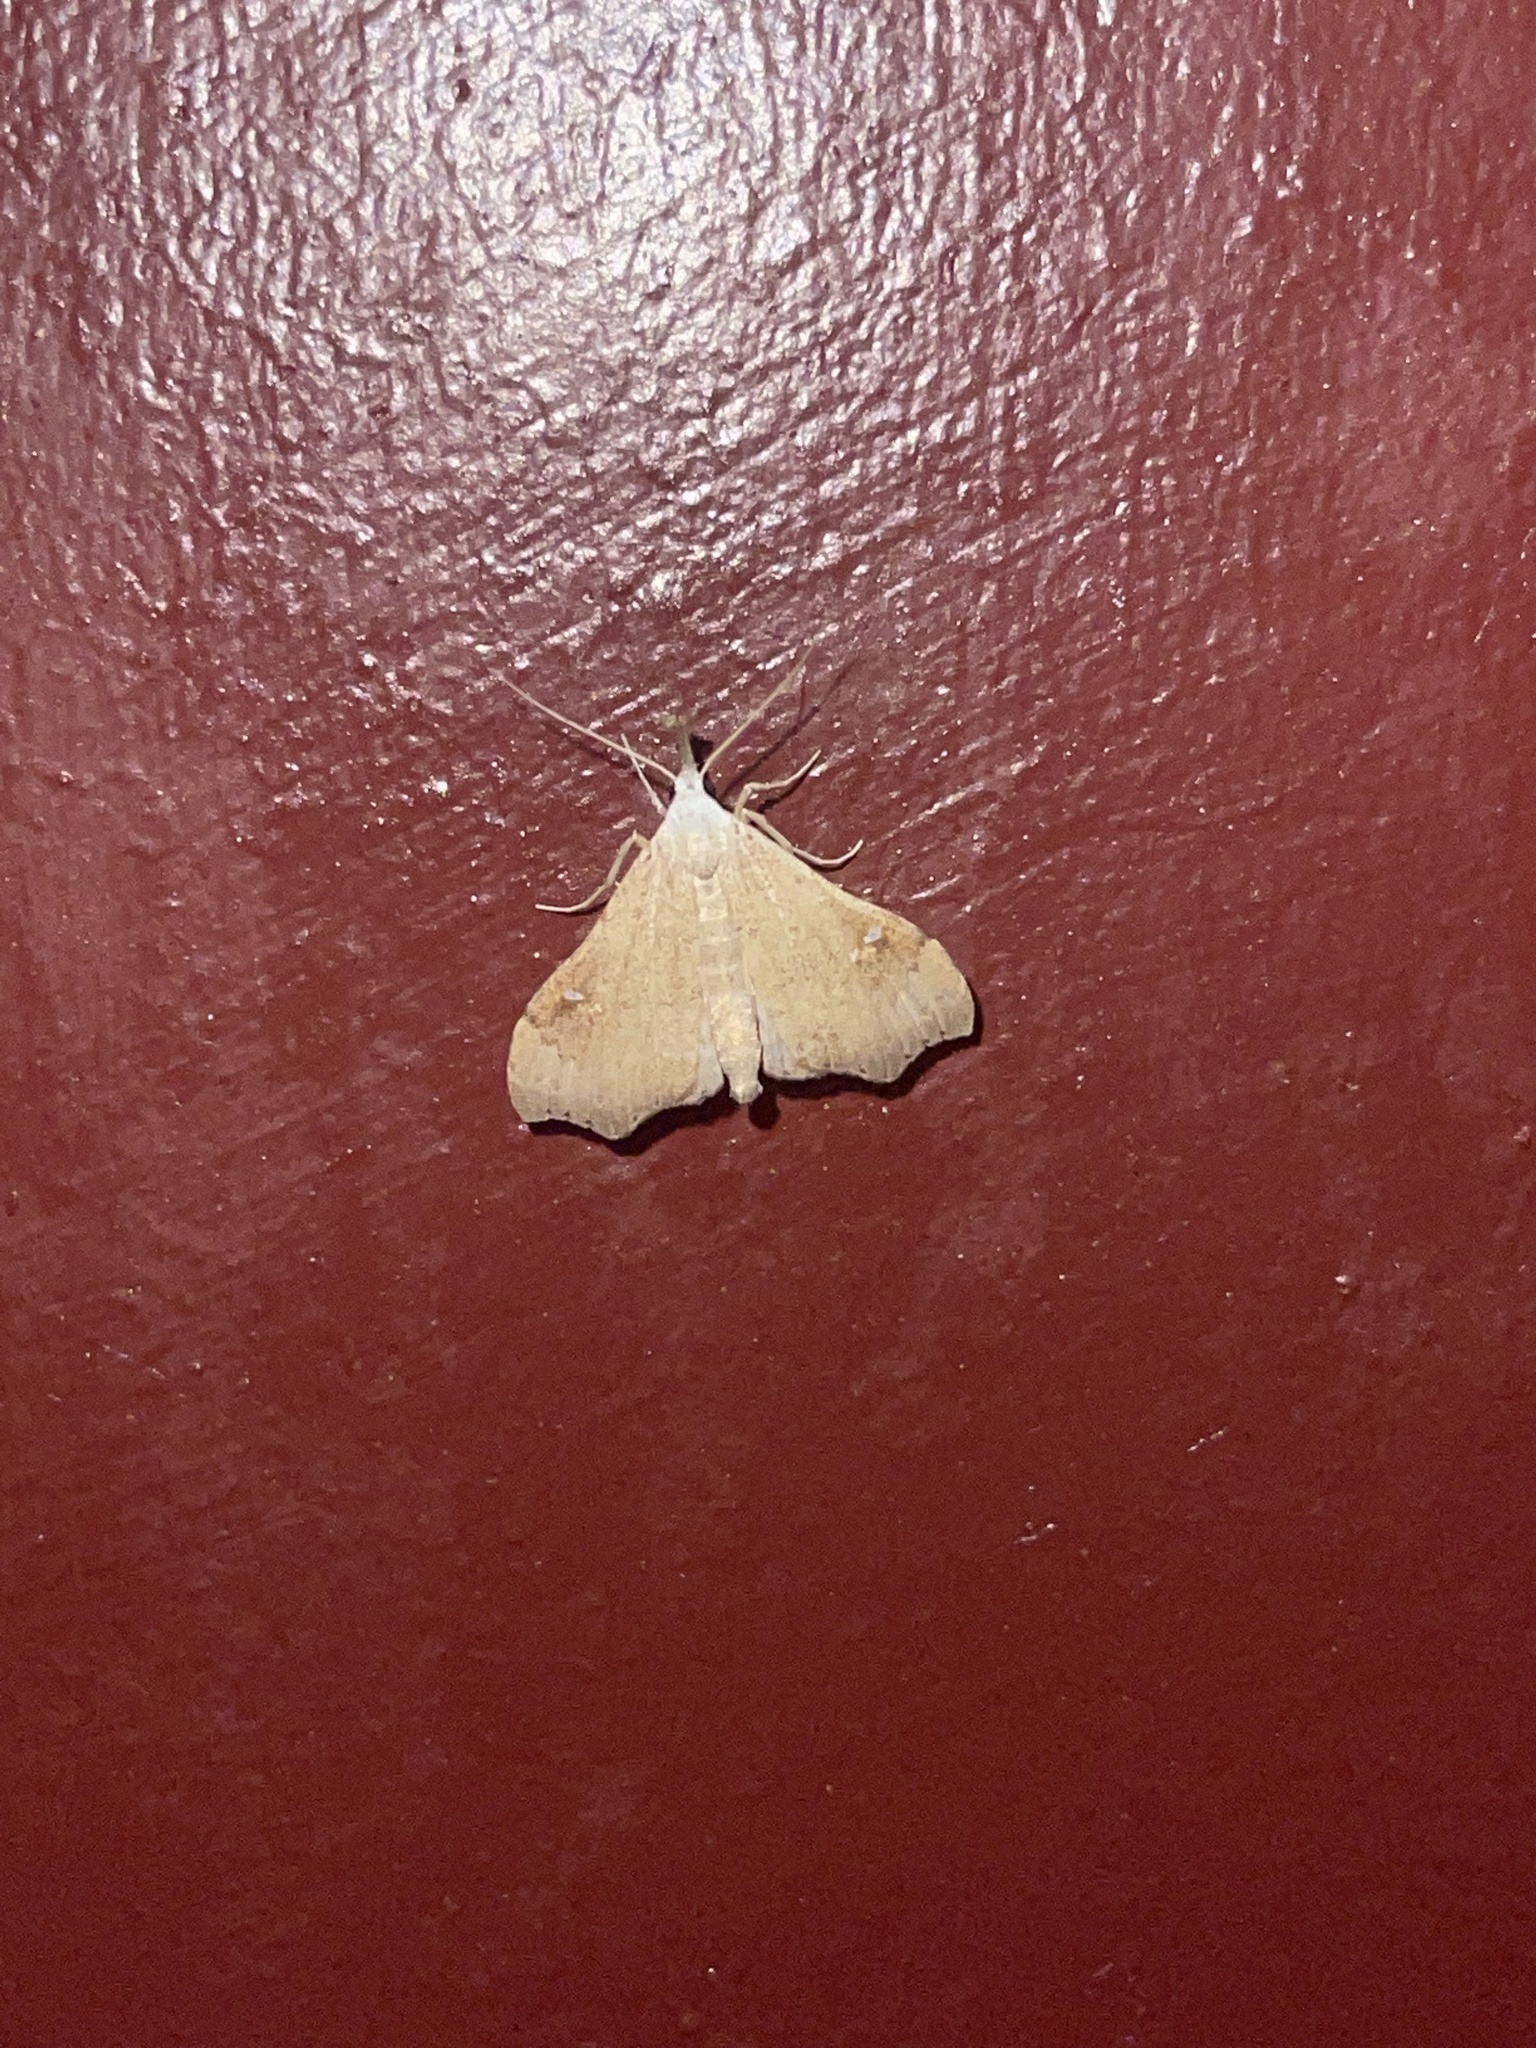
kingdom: Animalia
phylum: Arthropoda
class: Insecta
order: Lepidoptera
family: Erebidae
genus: Redectis
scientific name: Redectis vitrea
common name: White-spotted redectis
